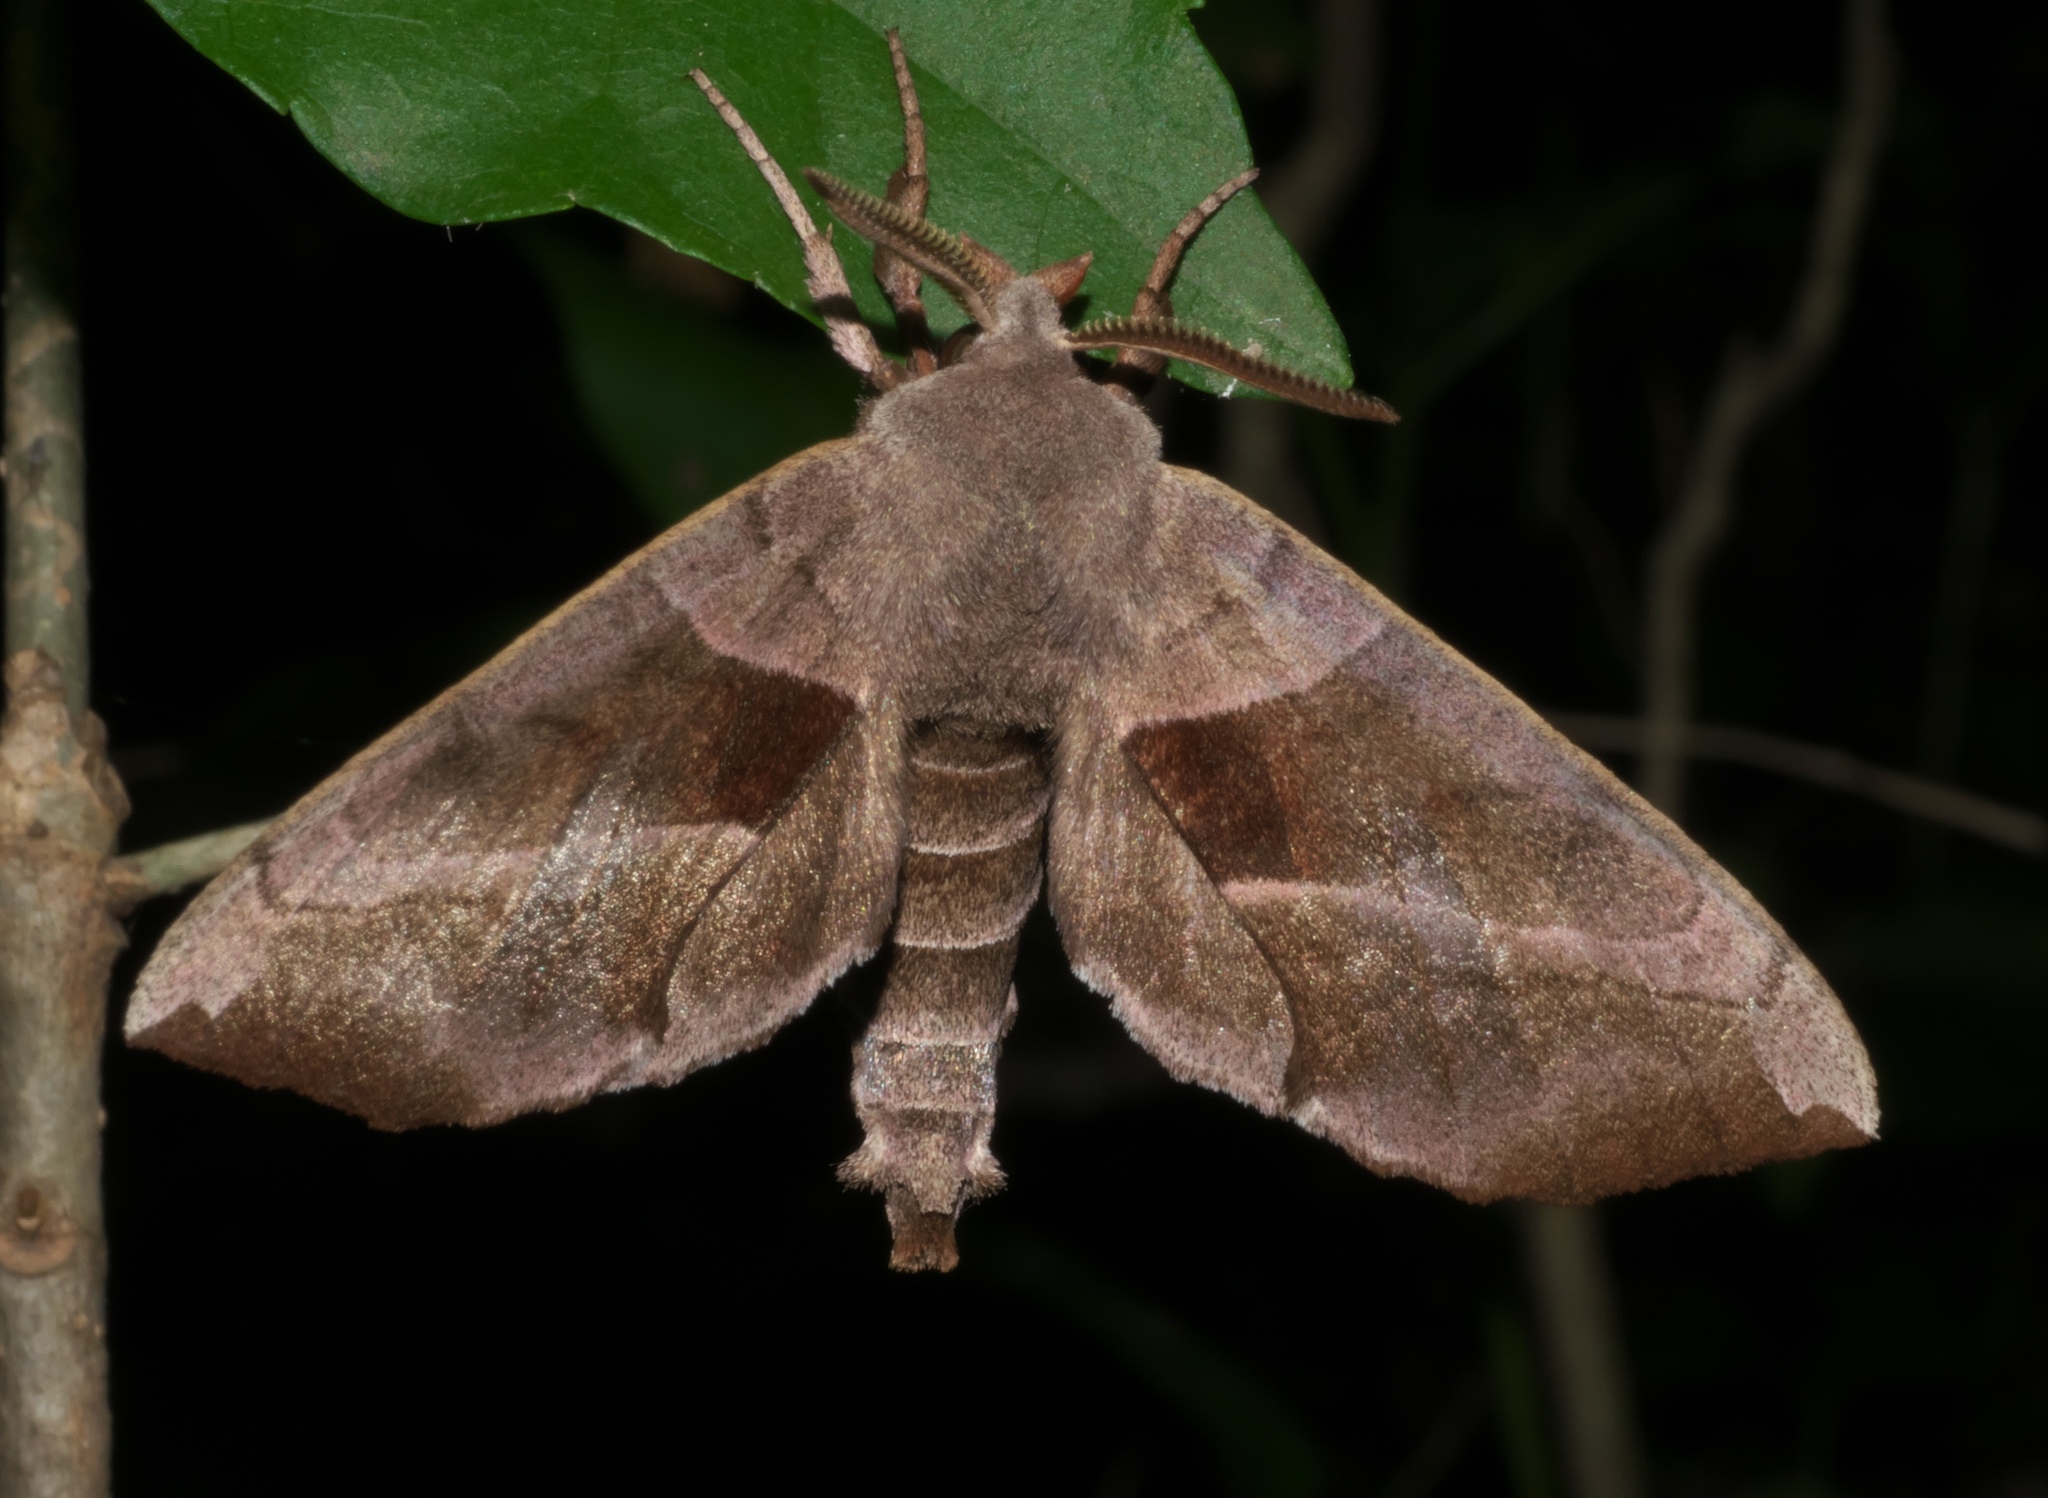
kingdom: Animalia
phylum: Arthropoda
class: Insecta
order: Lepidoptera
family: Sphingidae
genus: Amorpha
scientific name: Amorpha juglandis
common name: Walnut sphinx
